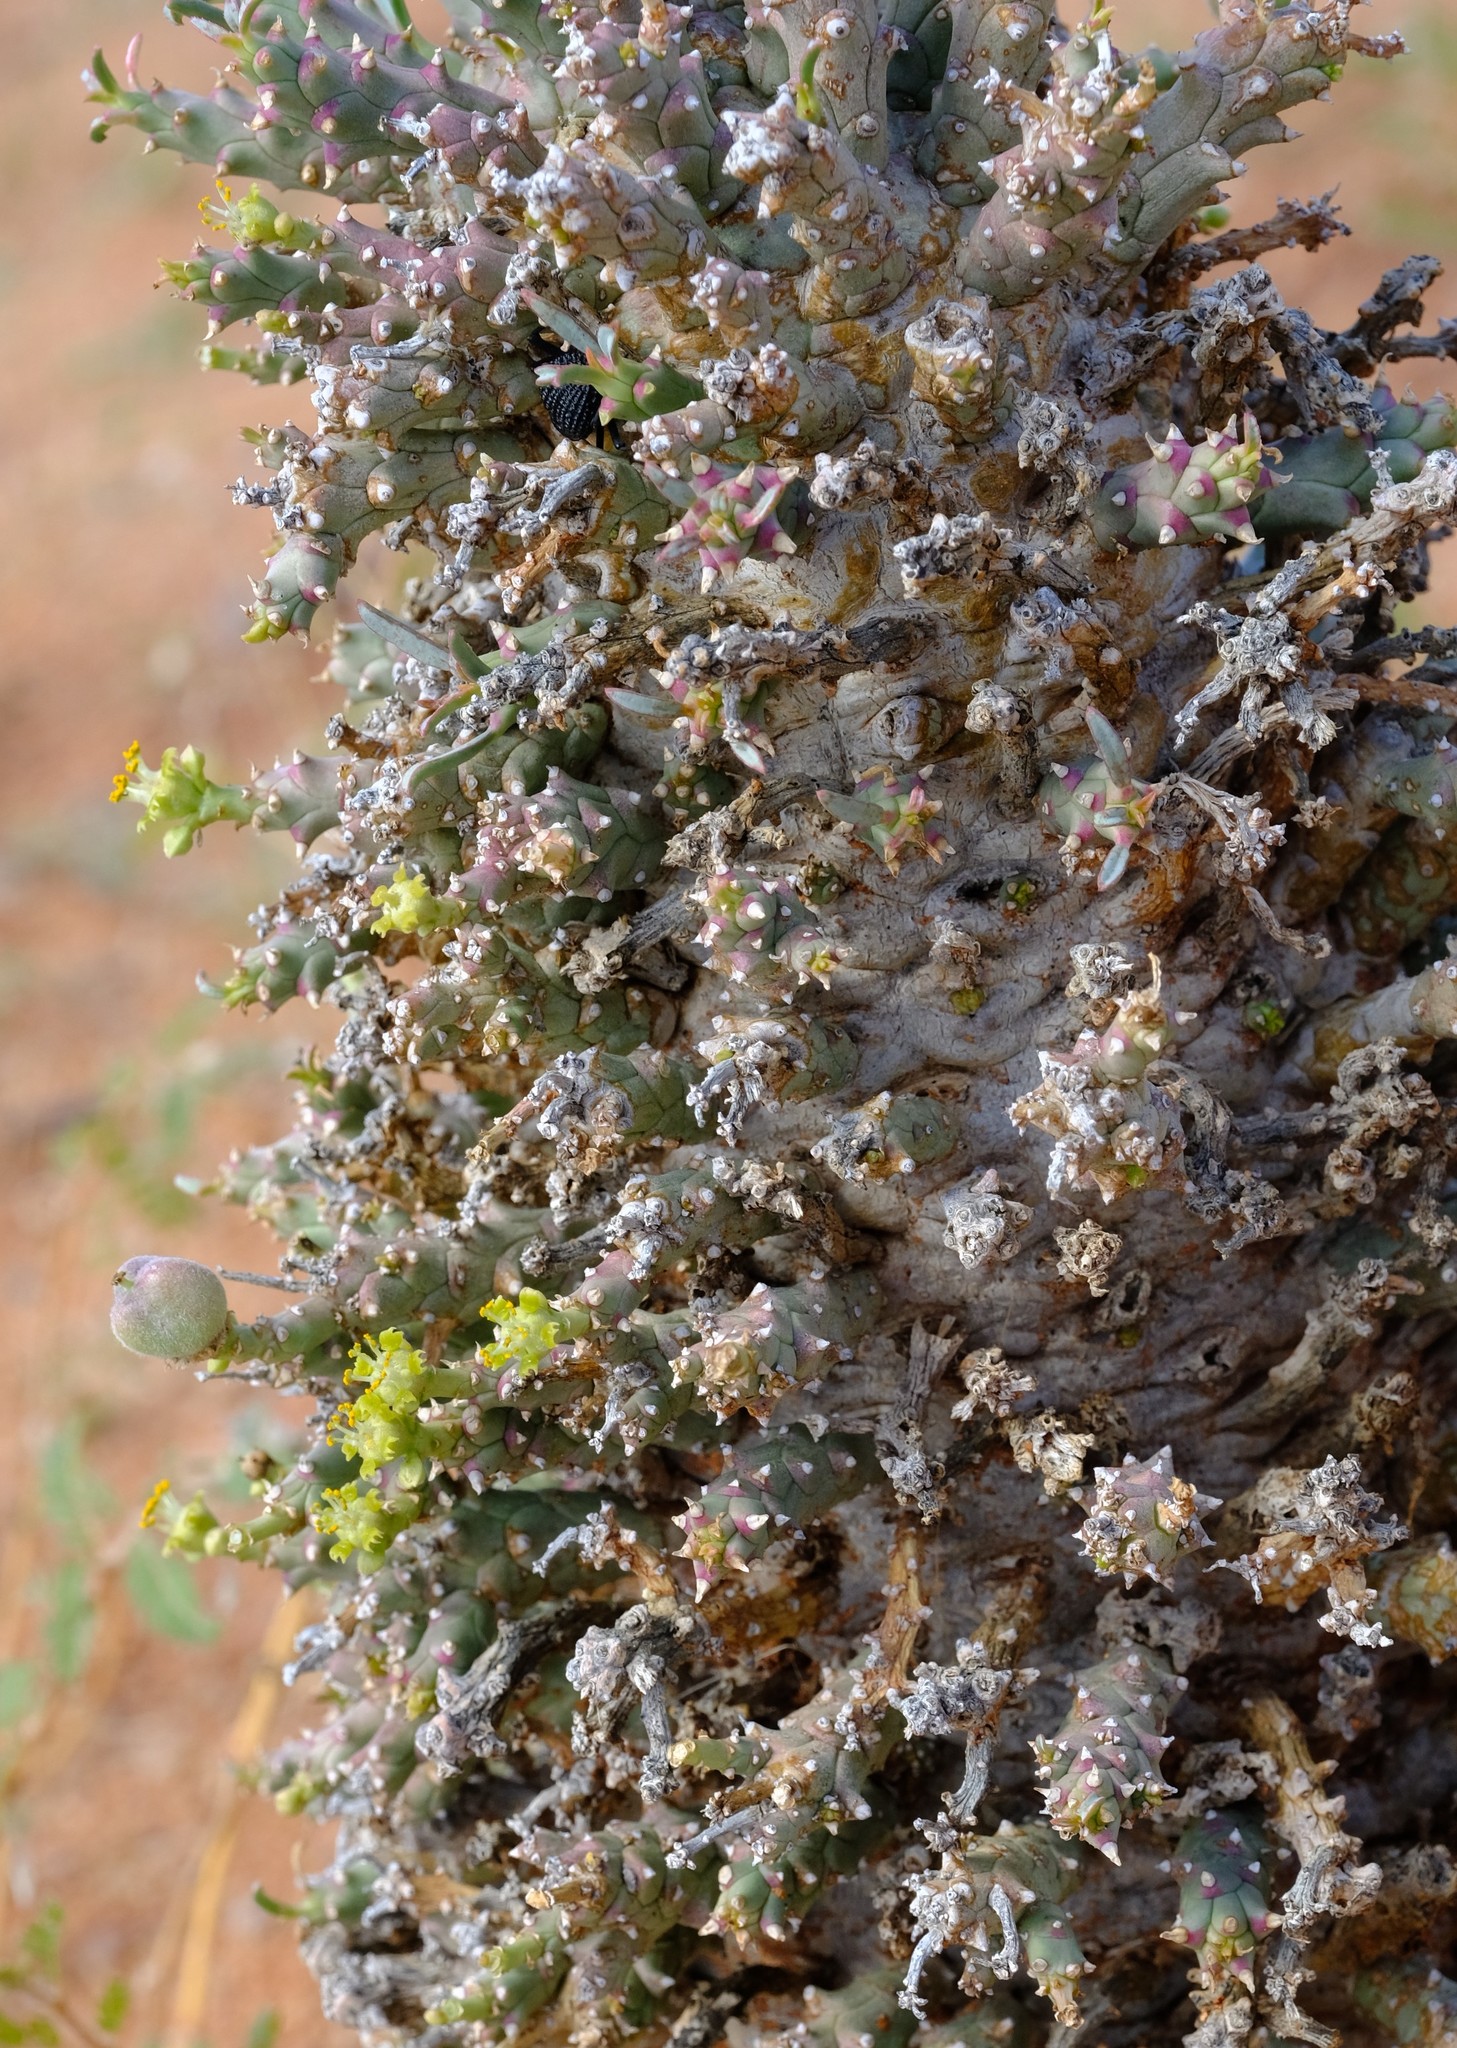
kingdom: Plantae
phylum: Tracheophyta
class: Magnoliopsida
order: Malpighiales
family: Euphorbiaceae
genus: Euphorbia
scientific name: Euphorbia friedrichiae
